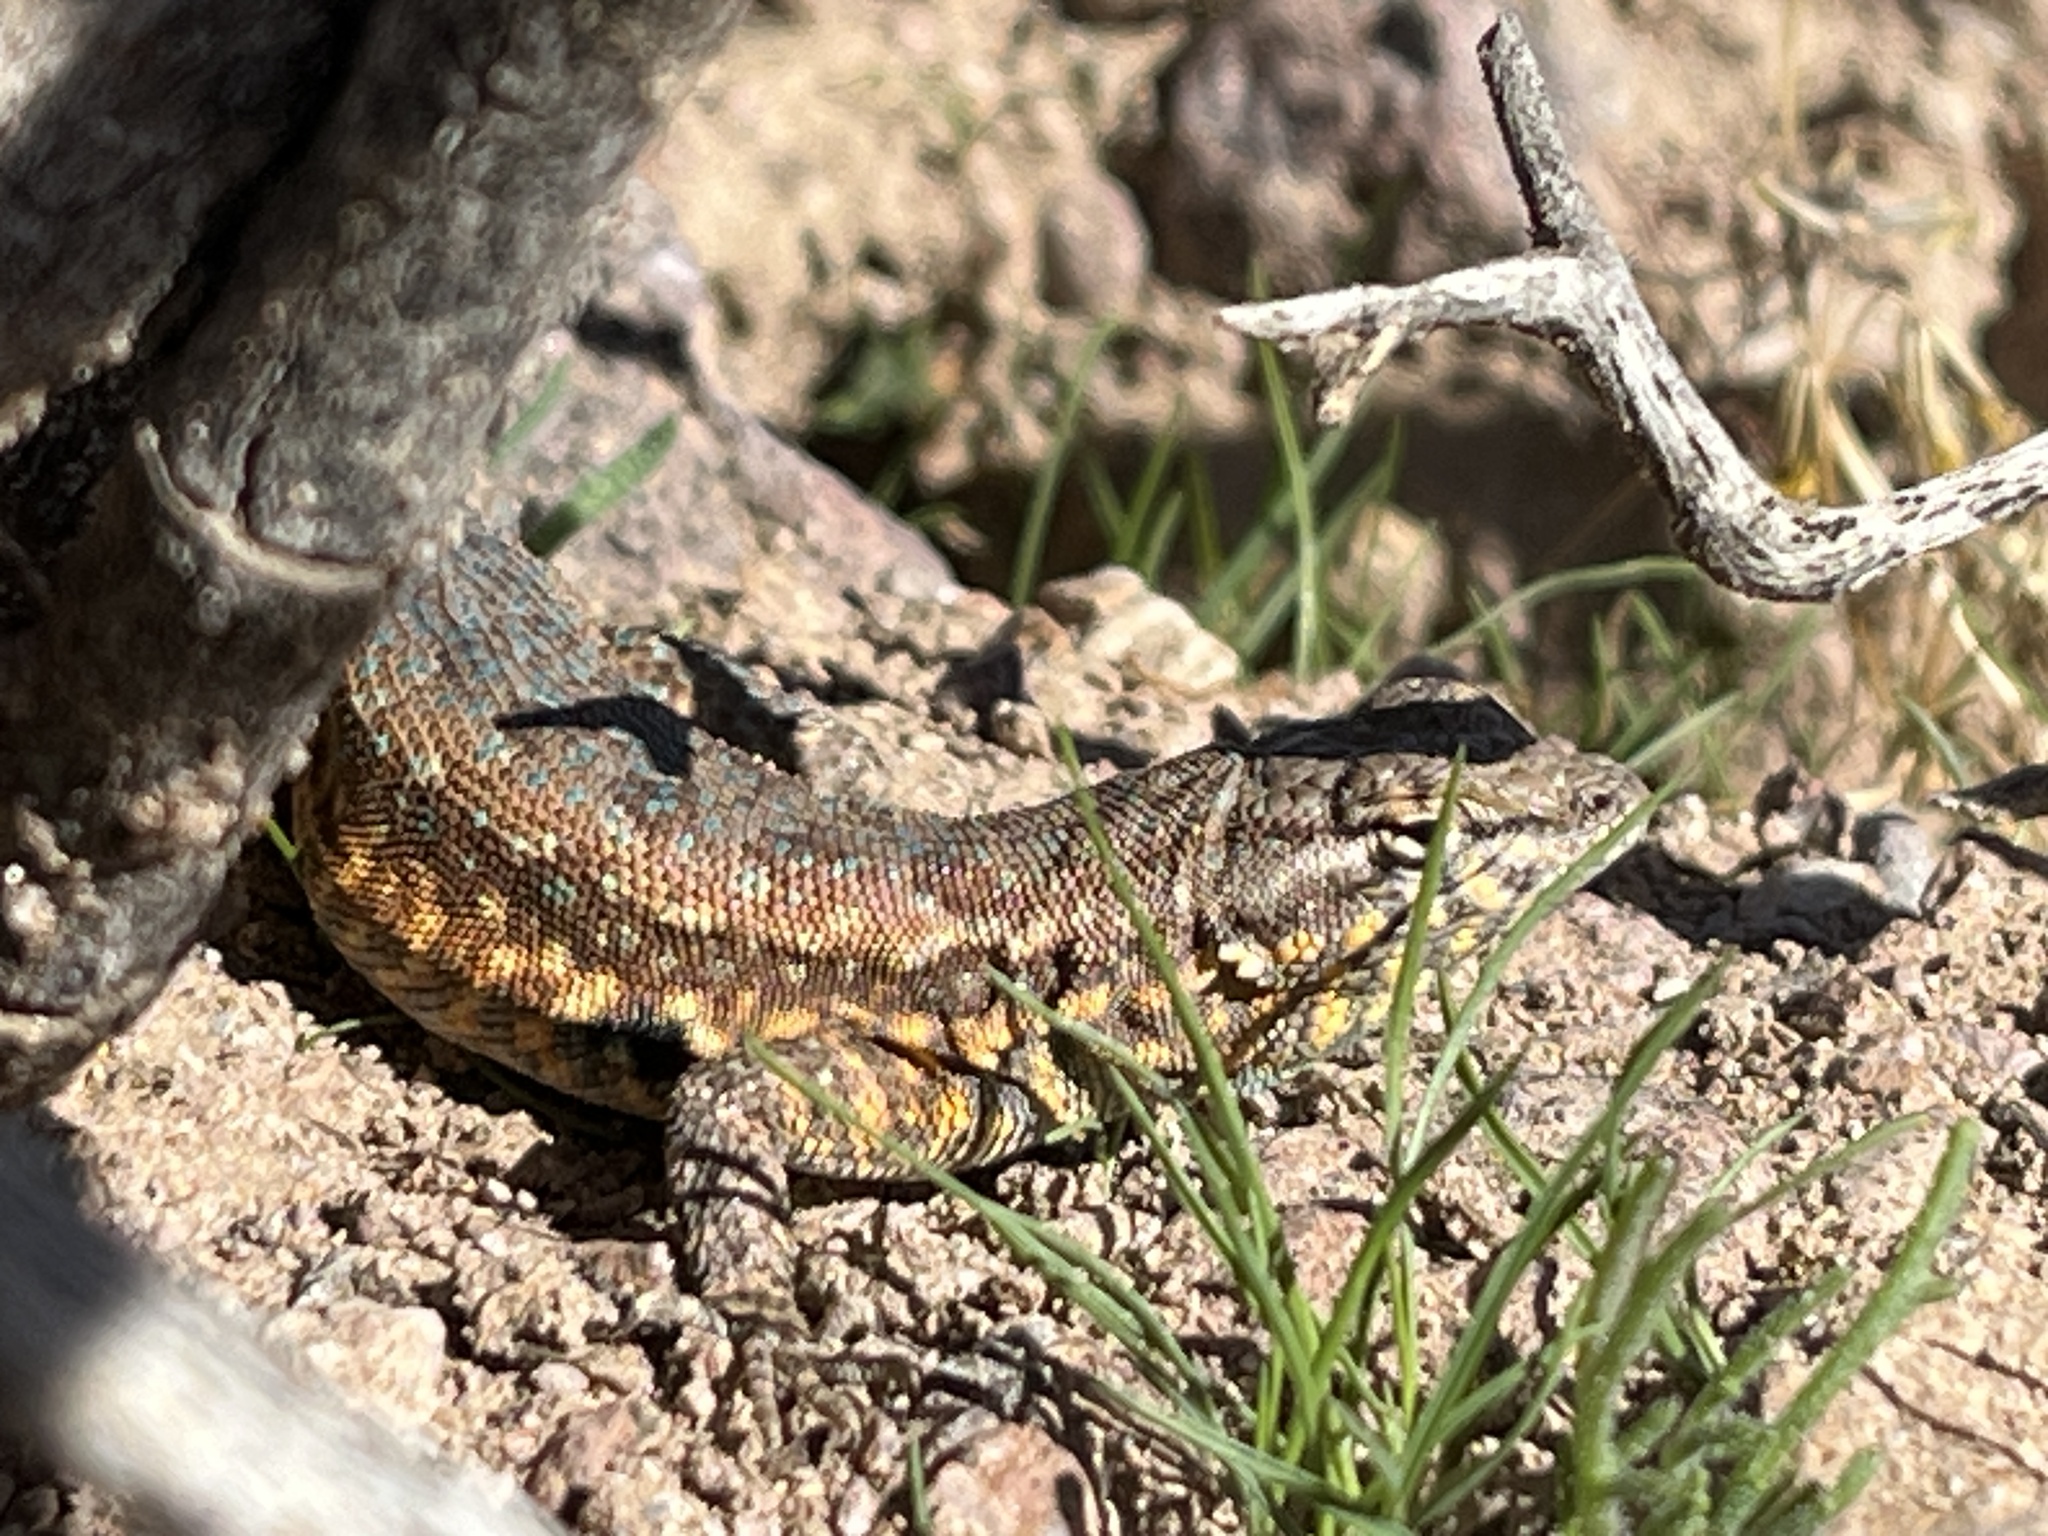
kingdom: Animalia
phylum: Chordata
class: Squamata
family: Phrynosomatidae
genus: Uta
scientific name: Uta stansburiana
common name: Side-blotched lizard
